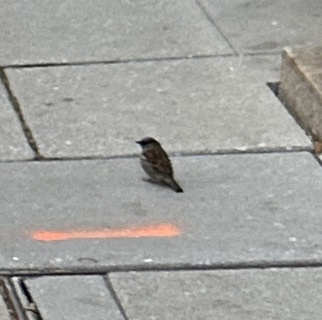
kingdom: Animalia
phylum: Chordata
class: Aves
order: Passeriformes
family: Passeridae
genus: Passer
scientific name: Passer domesticus
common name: House sparrow
